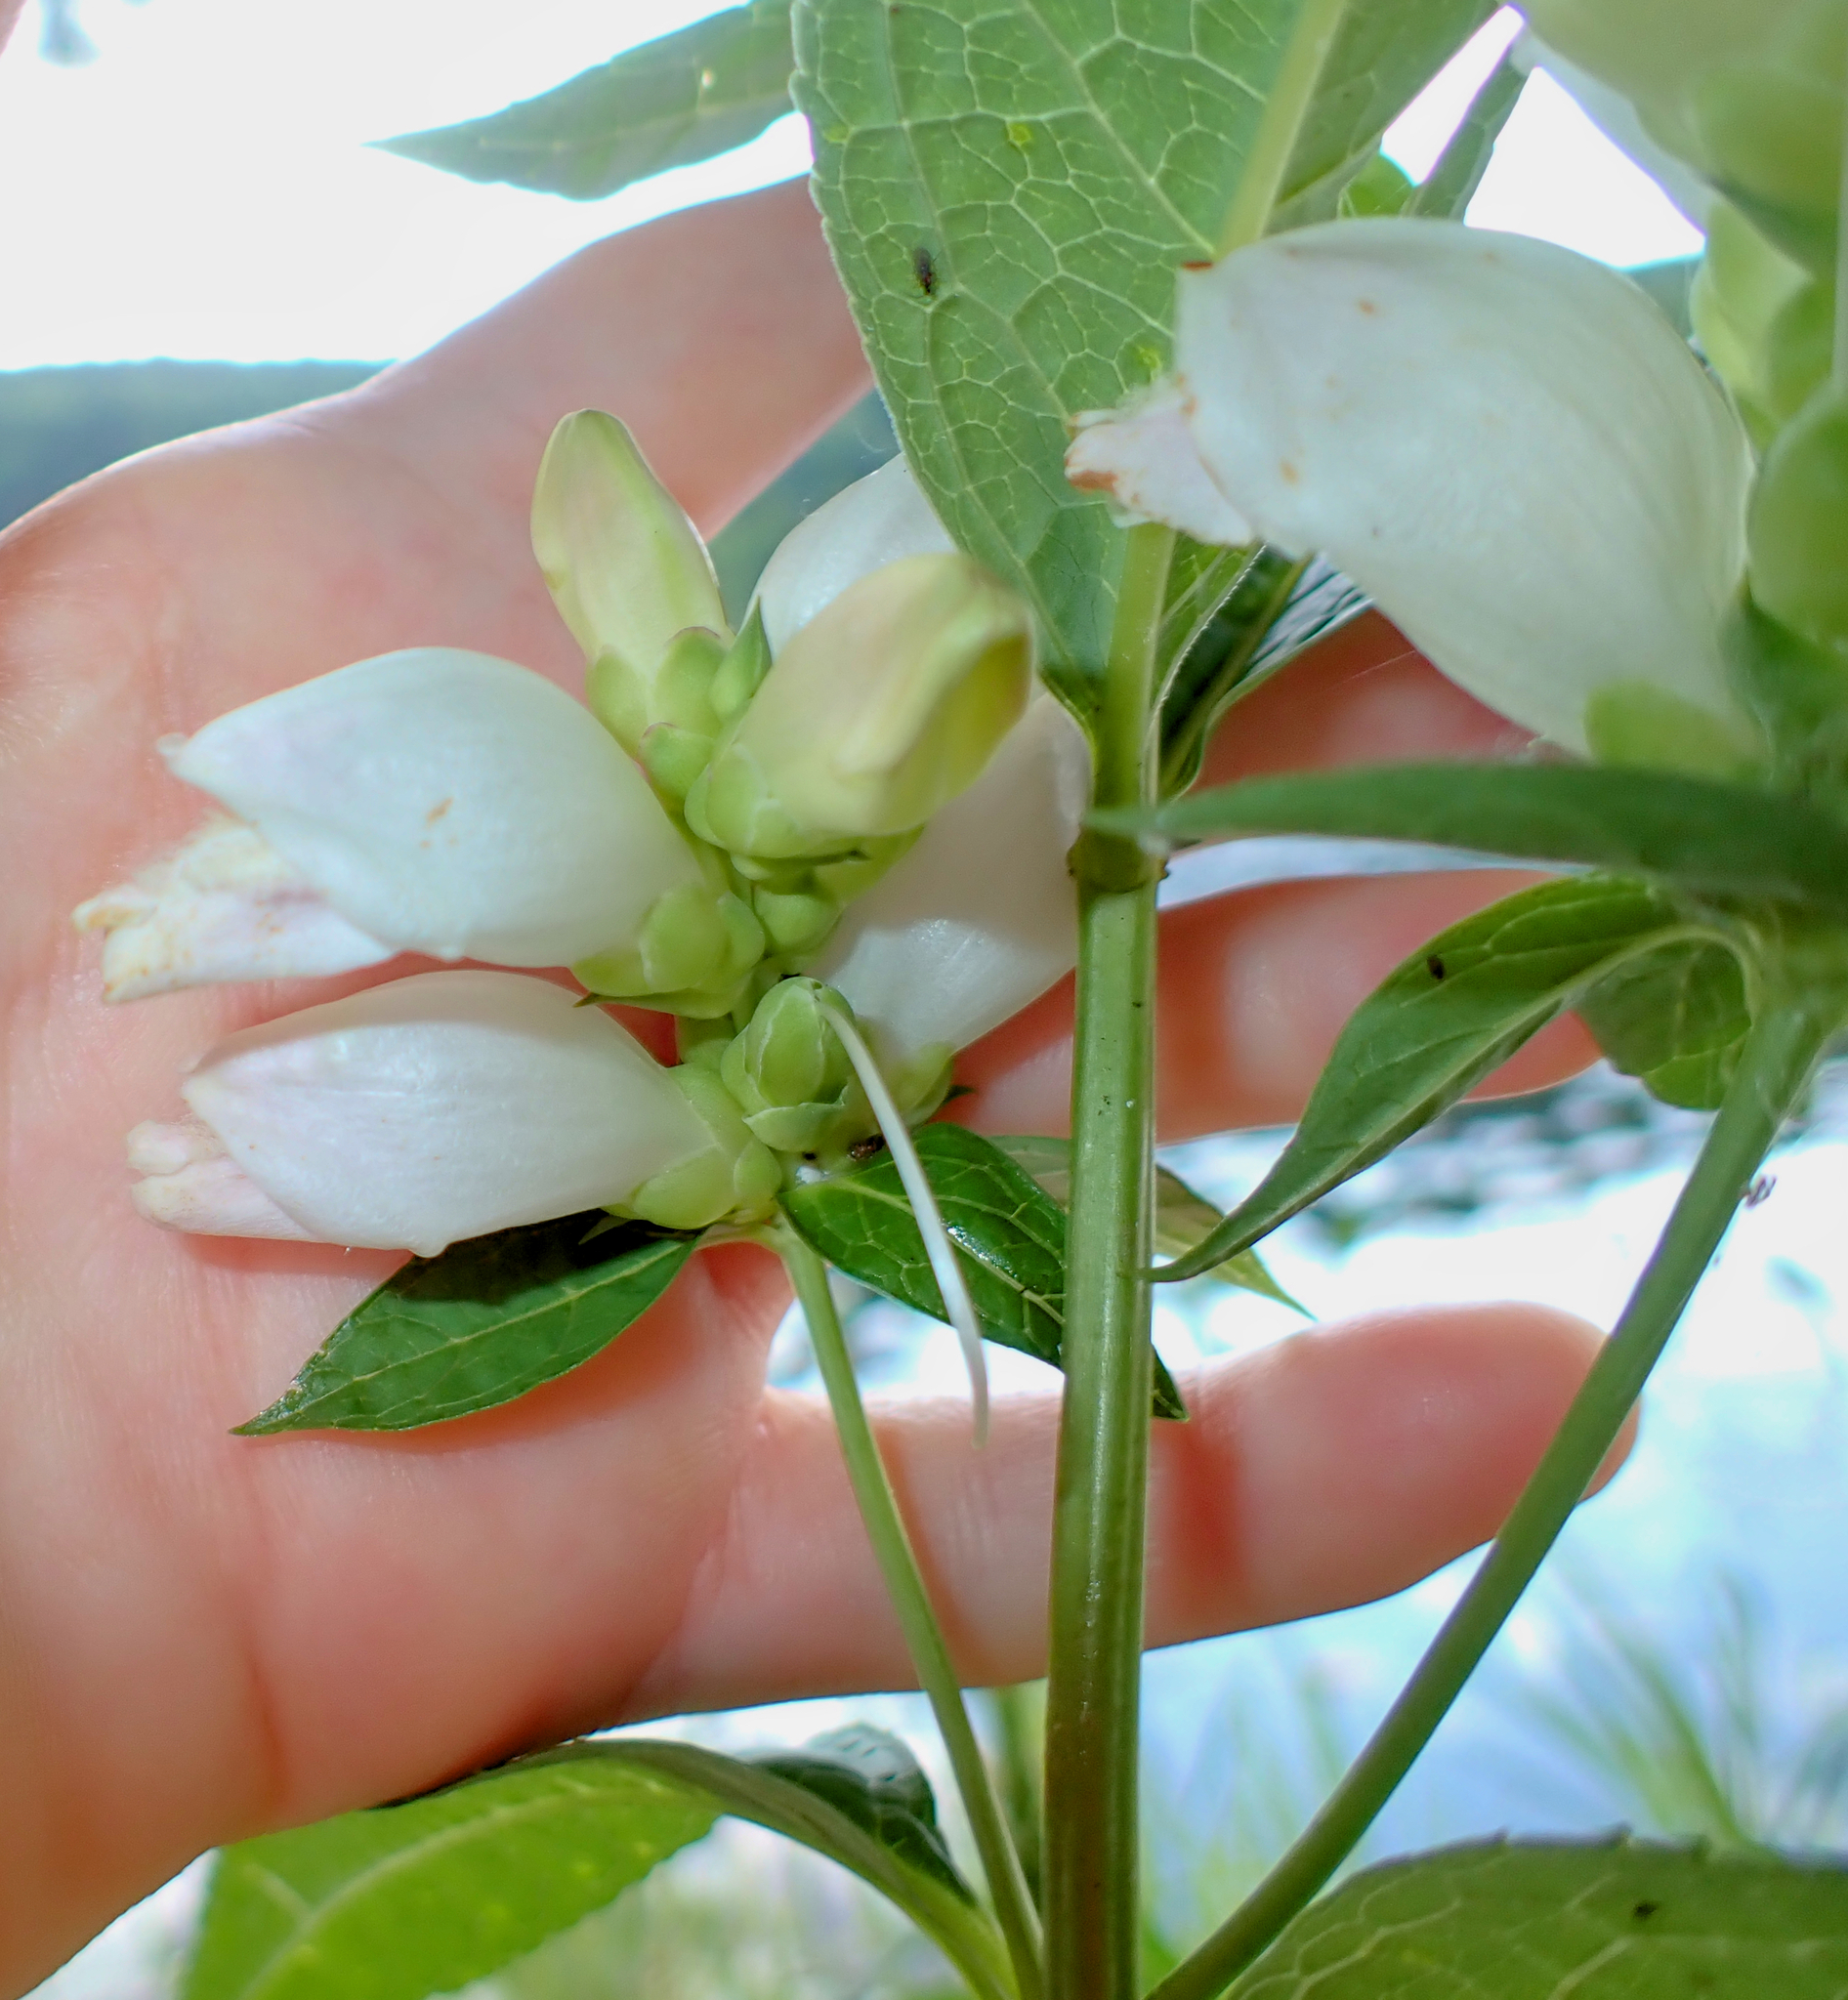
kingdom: Plantae
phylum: Tracheophyta
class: Magnoliopsida
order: Lamiales
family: Plantaginaceae
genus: Chelone
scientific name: Chelone glabra
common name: Snakehead
